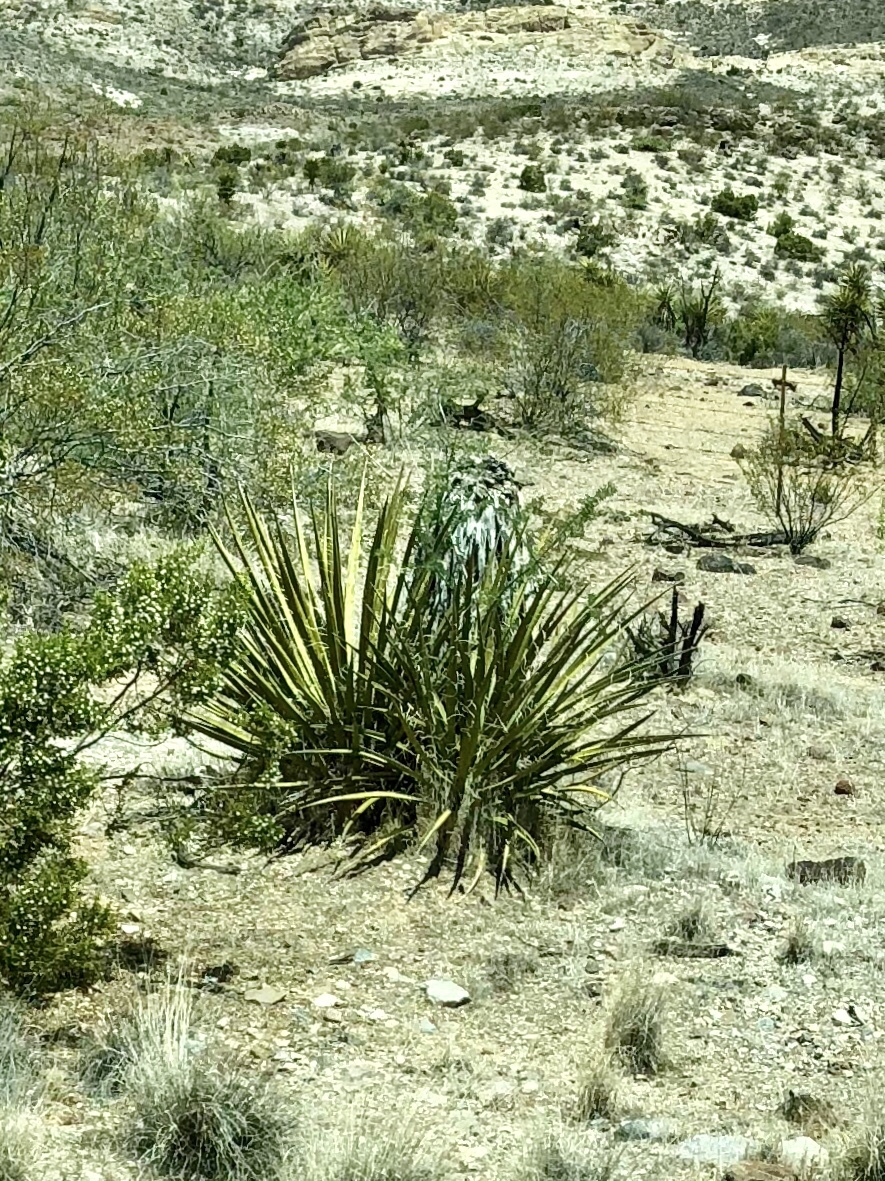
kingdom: Plantae
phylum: Tracheophyta
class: Liliopsida
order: Asparagales
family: Asparagaceae
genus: Yucca
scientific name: Yucca schidigera
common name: Mojave yucca
